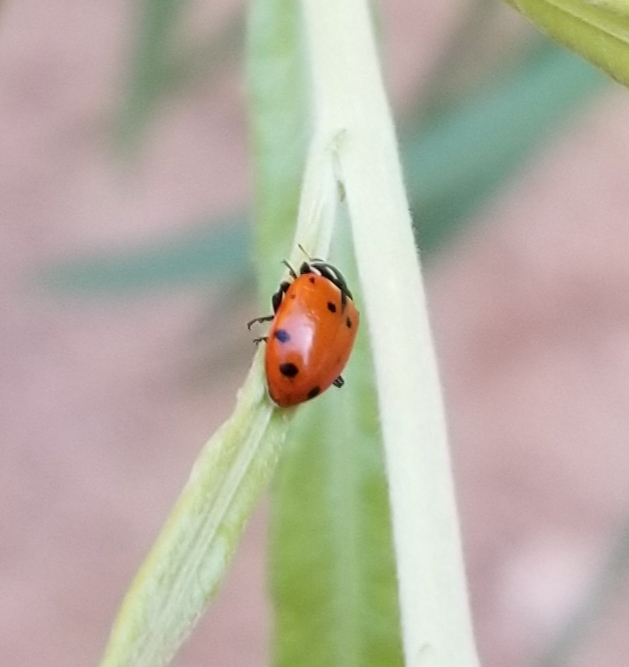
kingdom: Animalia
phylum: Arthropoda
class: Insecta
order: Coleoptera
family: Coccinellidae
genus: Hippodamia
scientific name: Hippodamia convergens
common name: Convergent lady beetle
